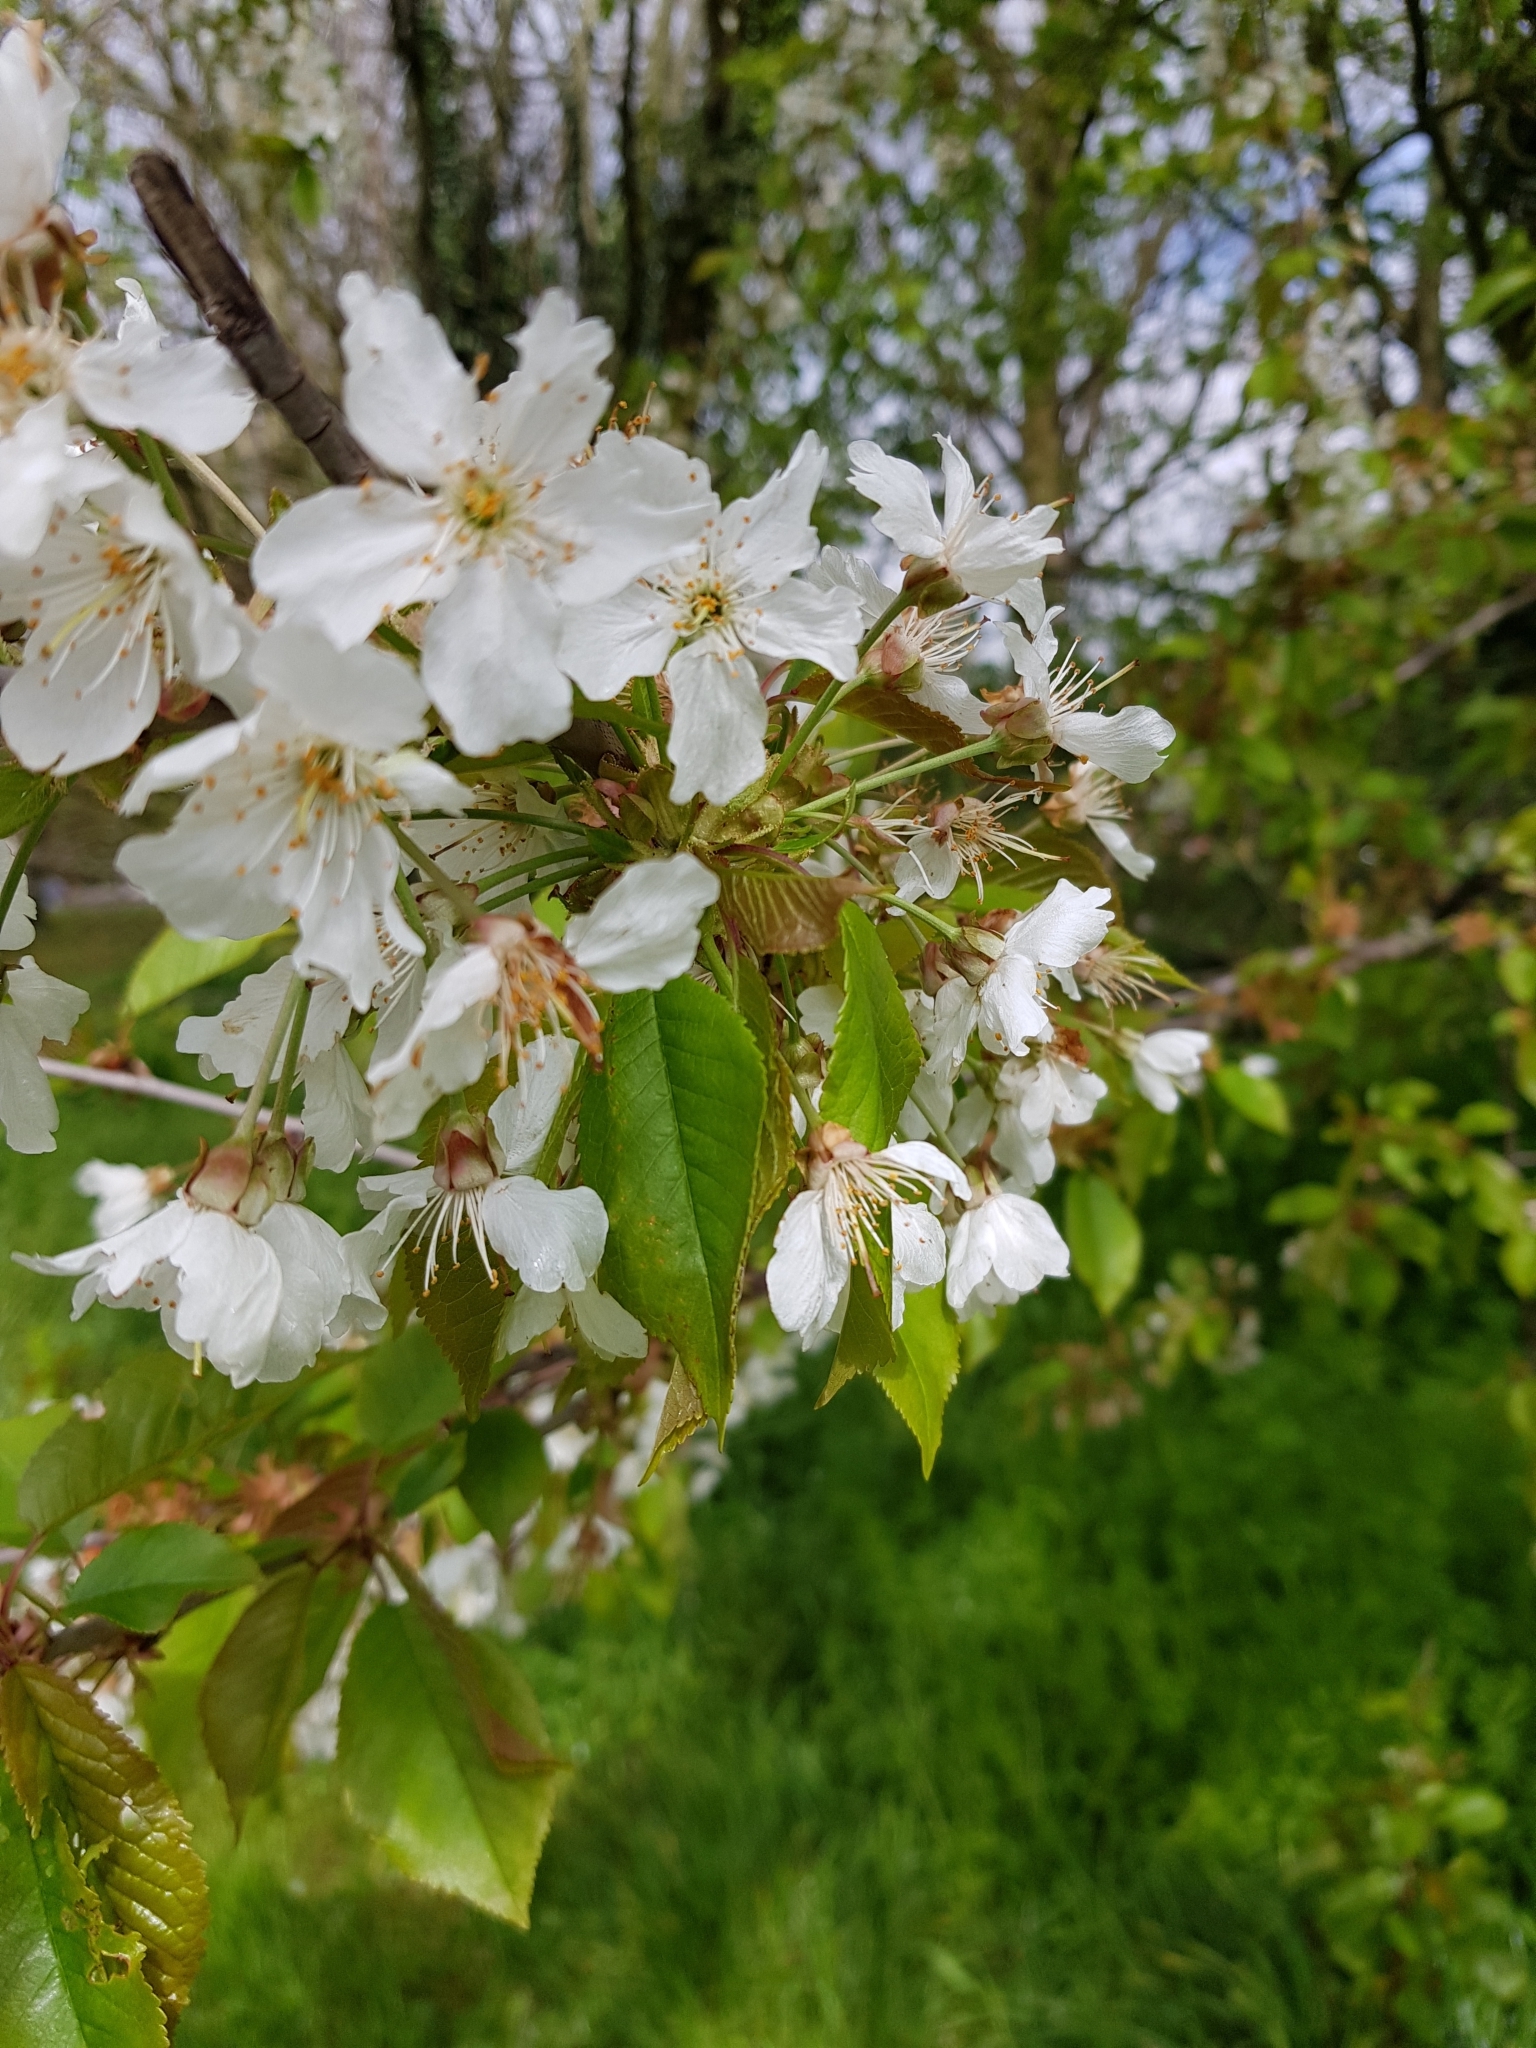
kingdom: Plantae
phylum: Tracheophyta
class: Magnoliopsida
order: Rosales
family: Rosaceae
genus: Prunus
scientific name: Prunus avium
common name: Sweet cherry
